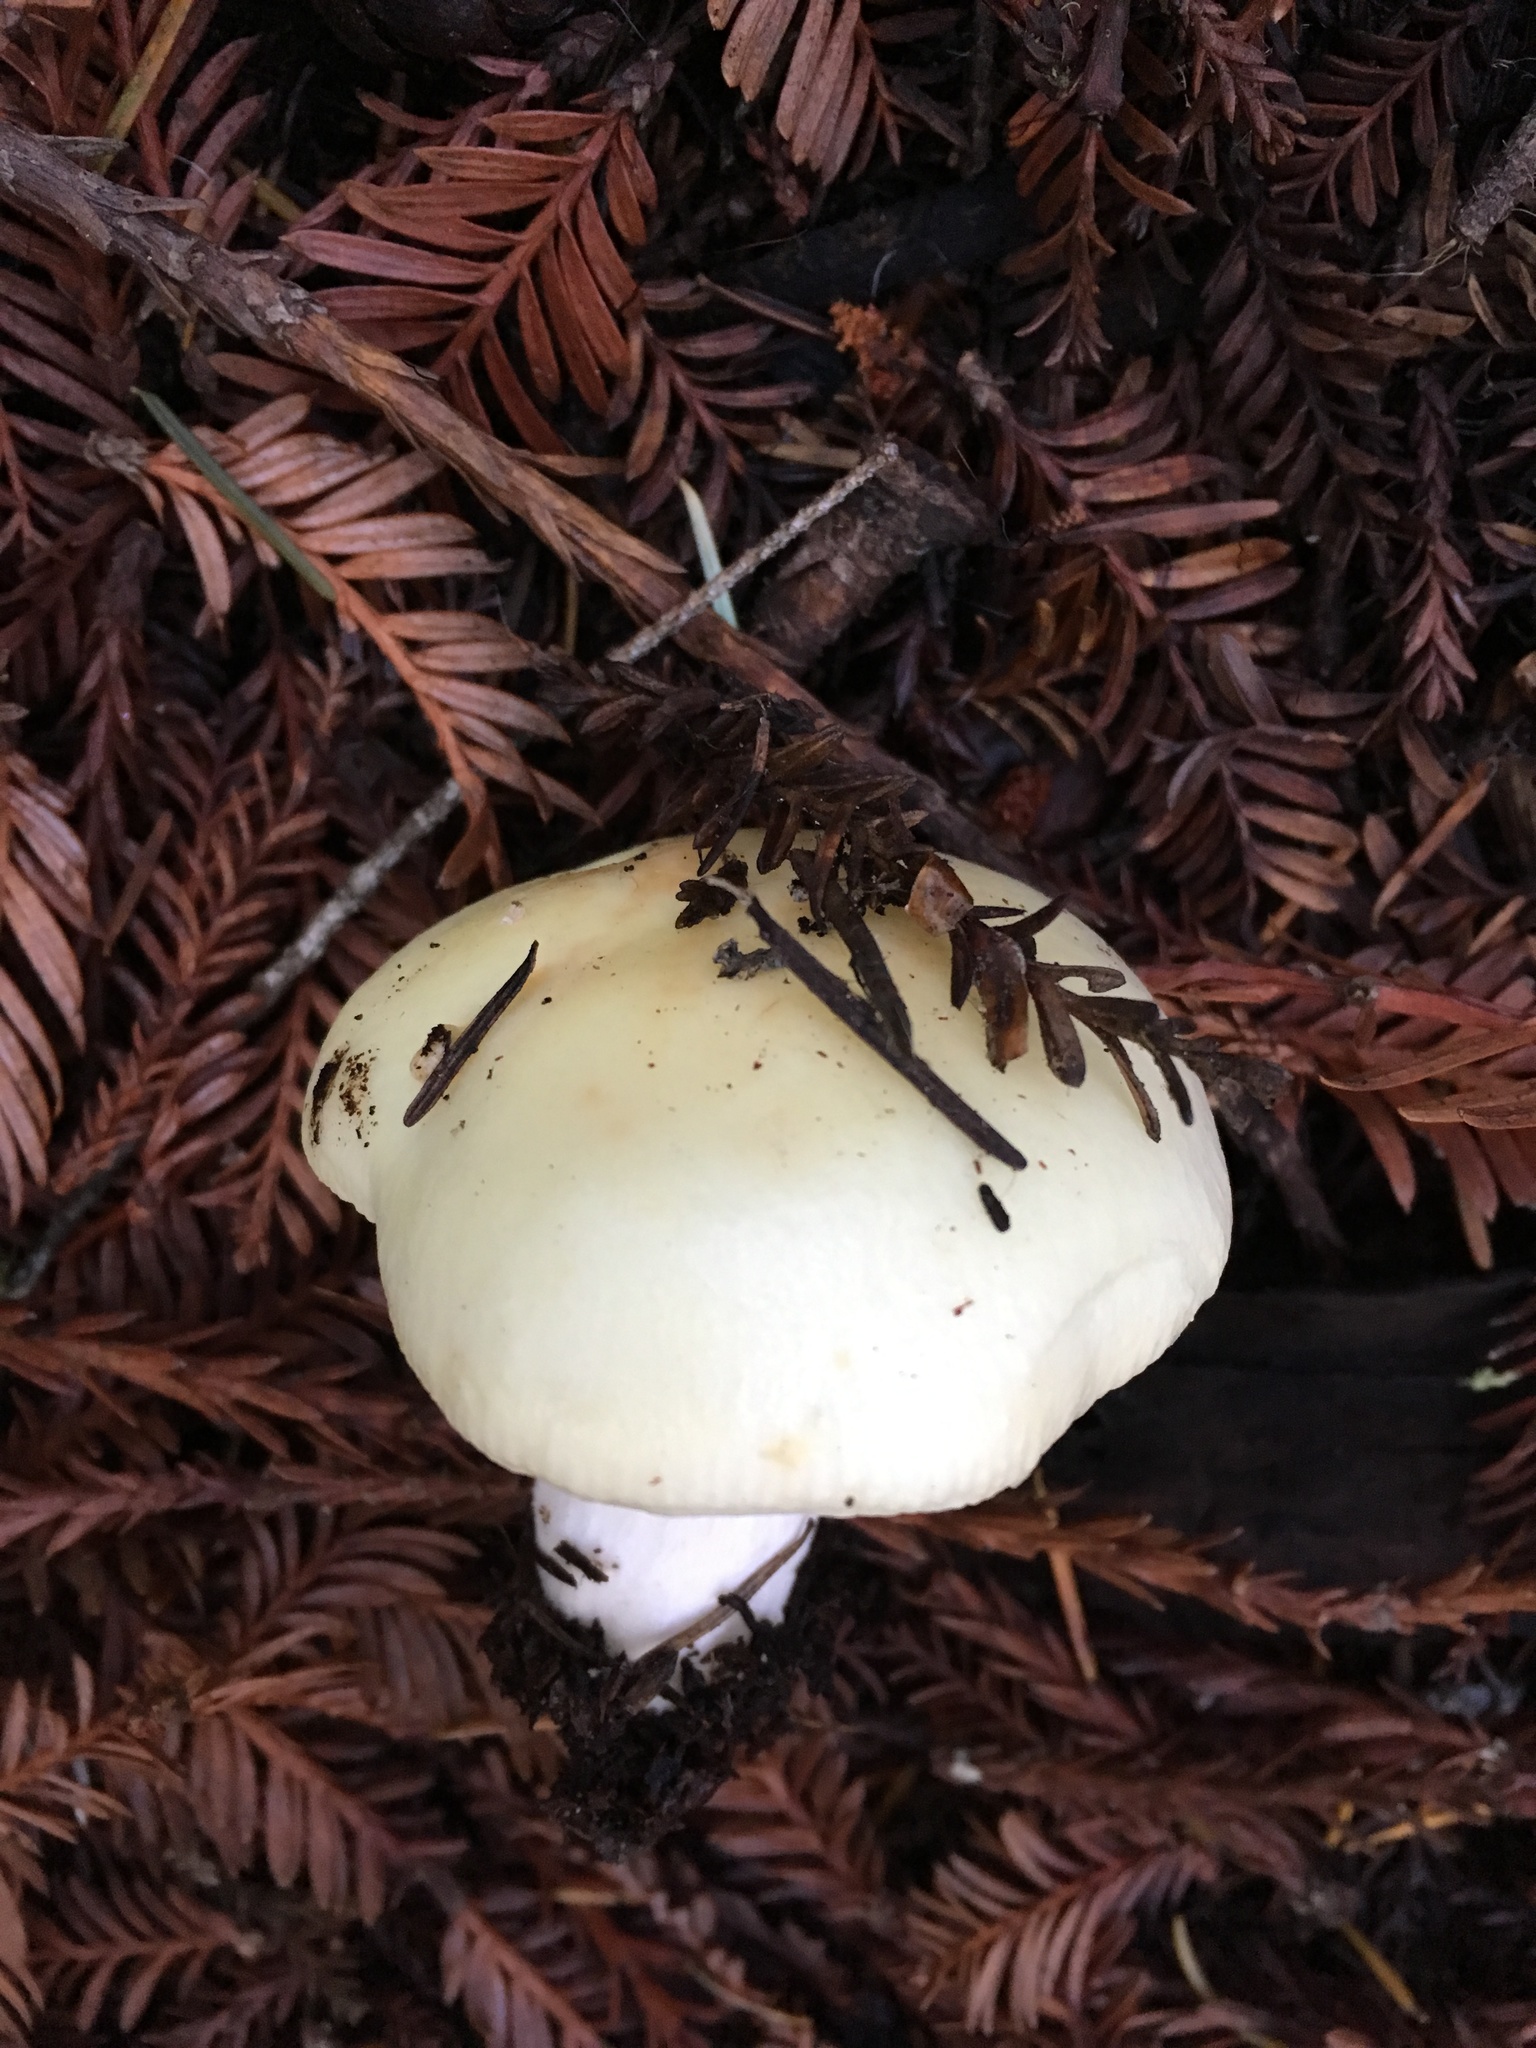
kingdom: Fungi
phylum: Basidiomycota
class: Agaricomycetes
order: Russulales
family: Russulaceae
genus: Russula
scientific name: Russula cremoricolor
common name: Winter russula
